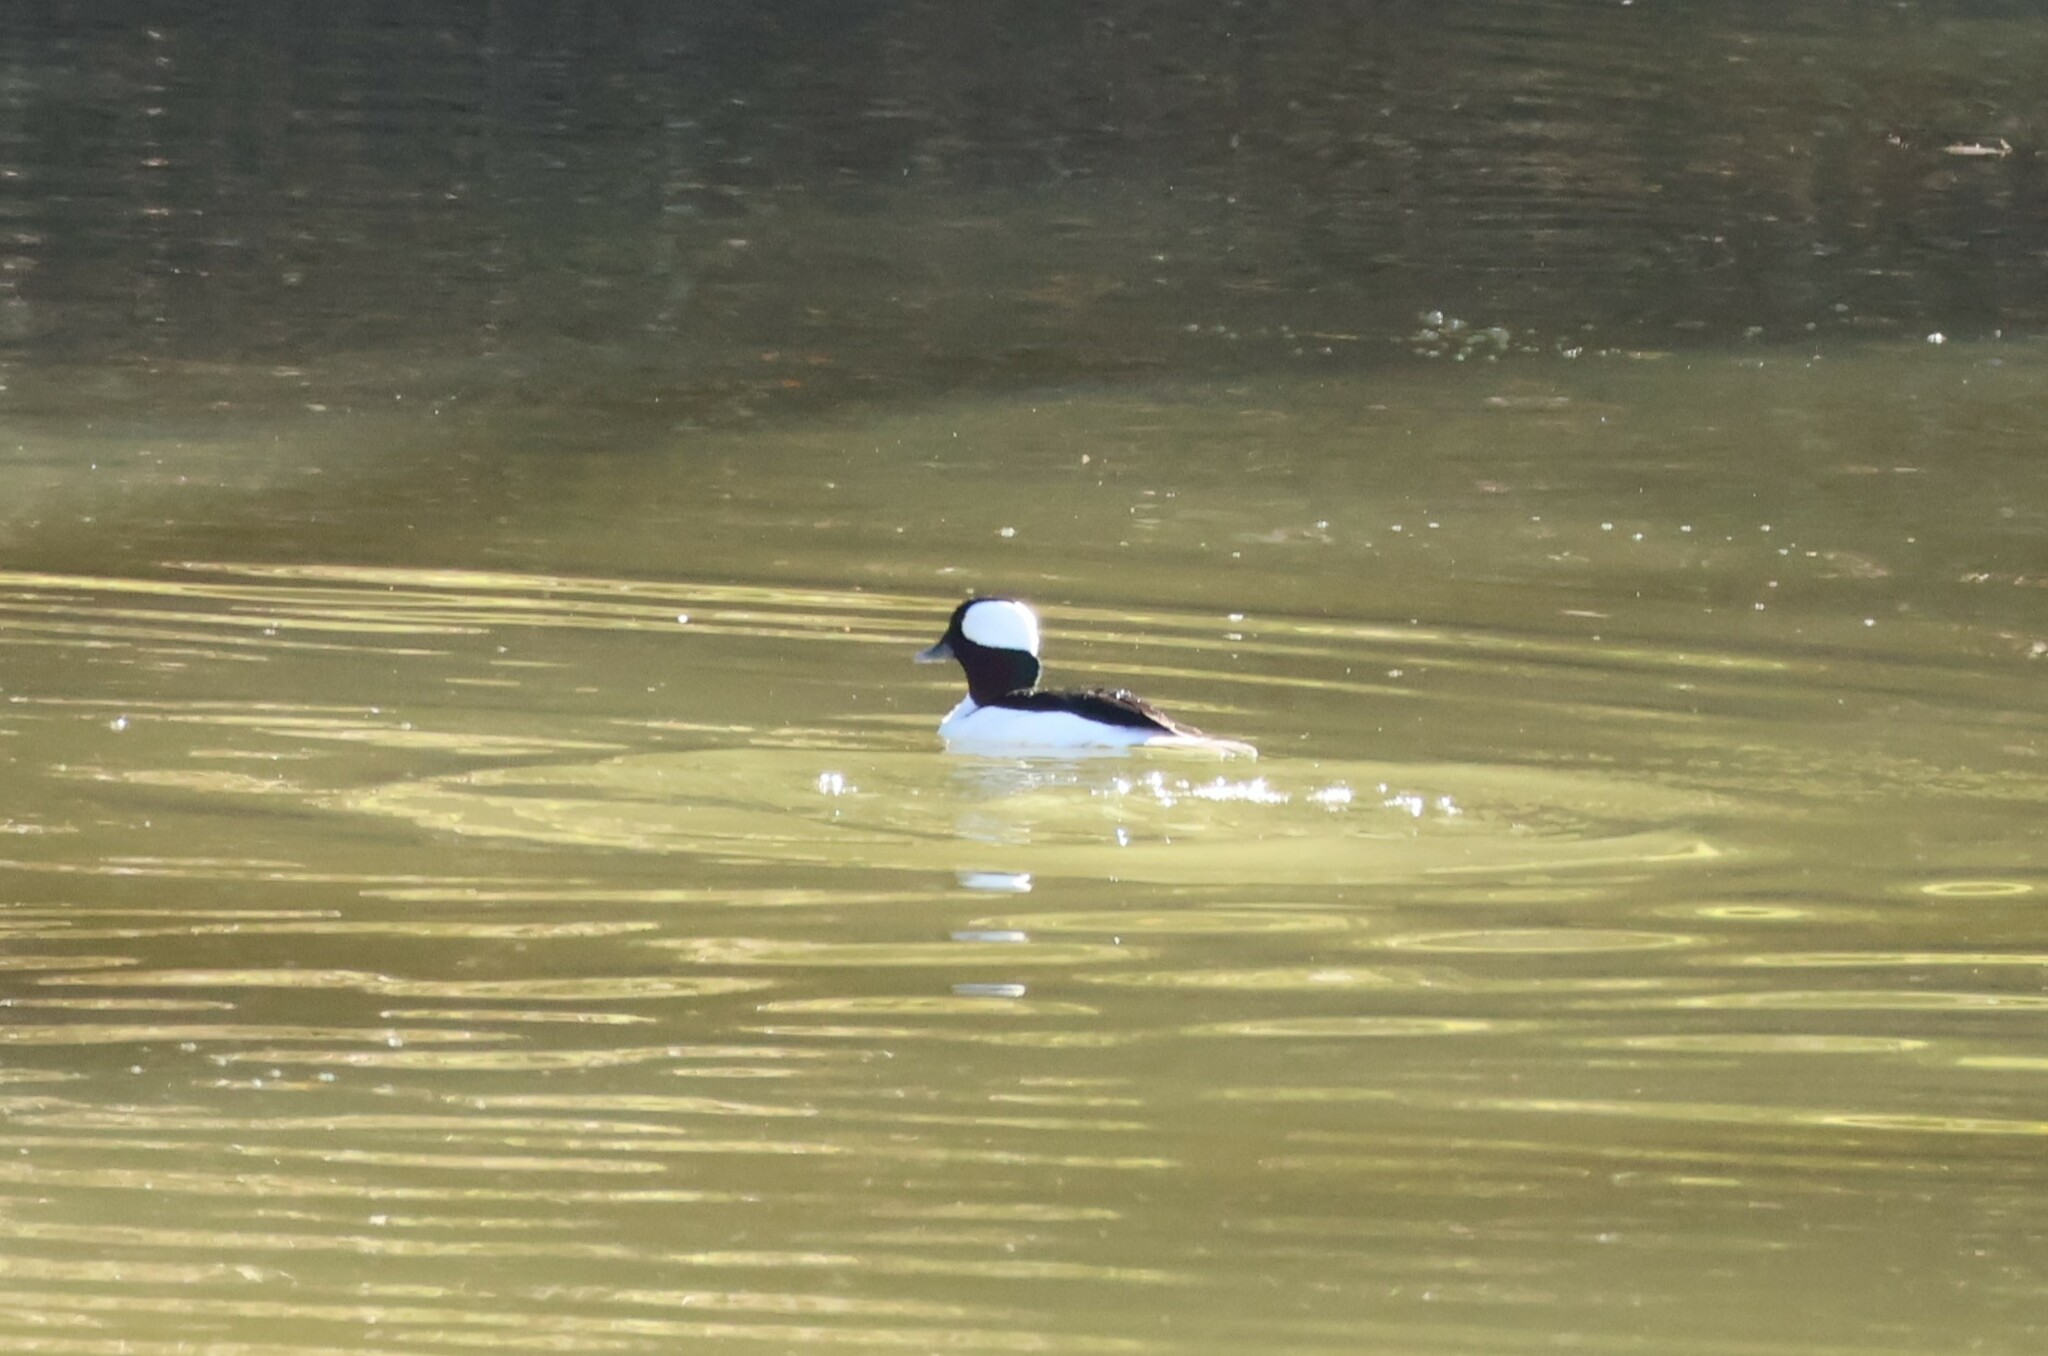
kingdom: Animalia
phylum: Chordata
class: Aves
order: Anseriformes
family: Anatidae
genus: Bucephala
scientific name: Bucephala albeola
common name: Bufflehead
